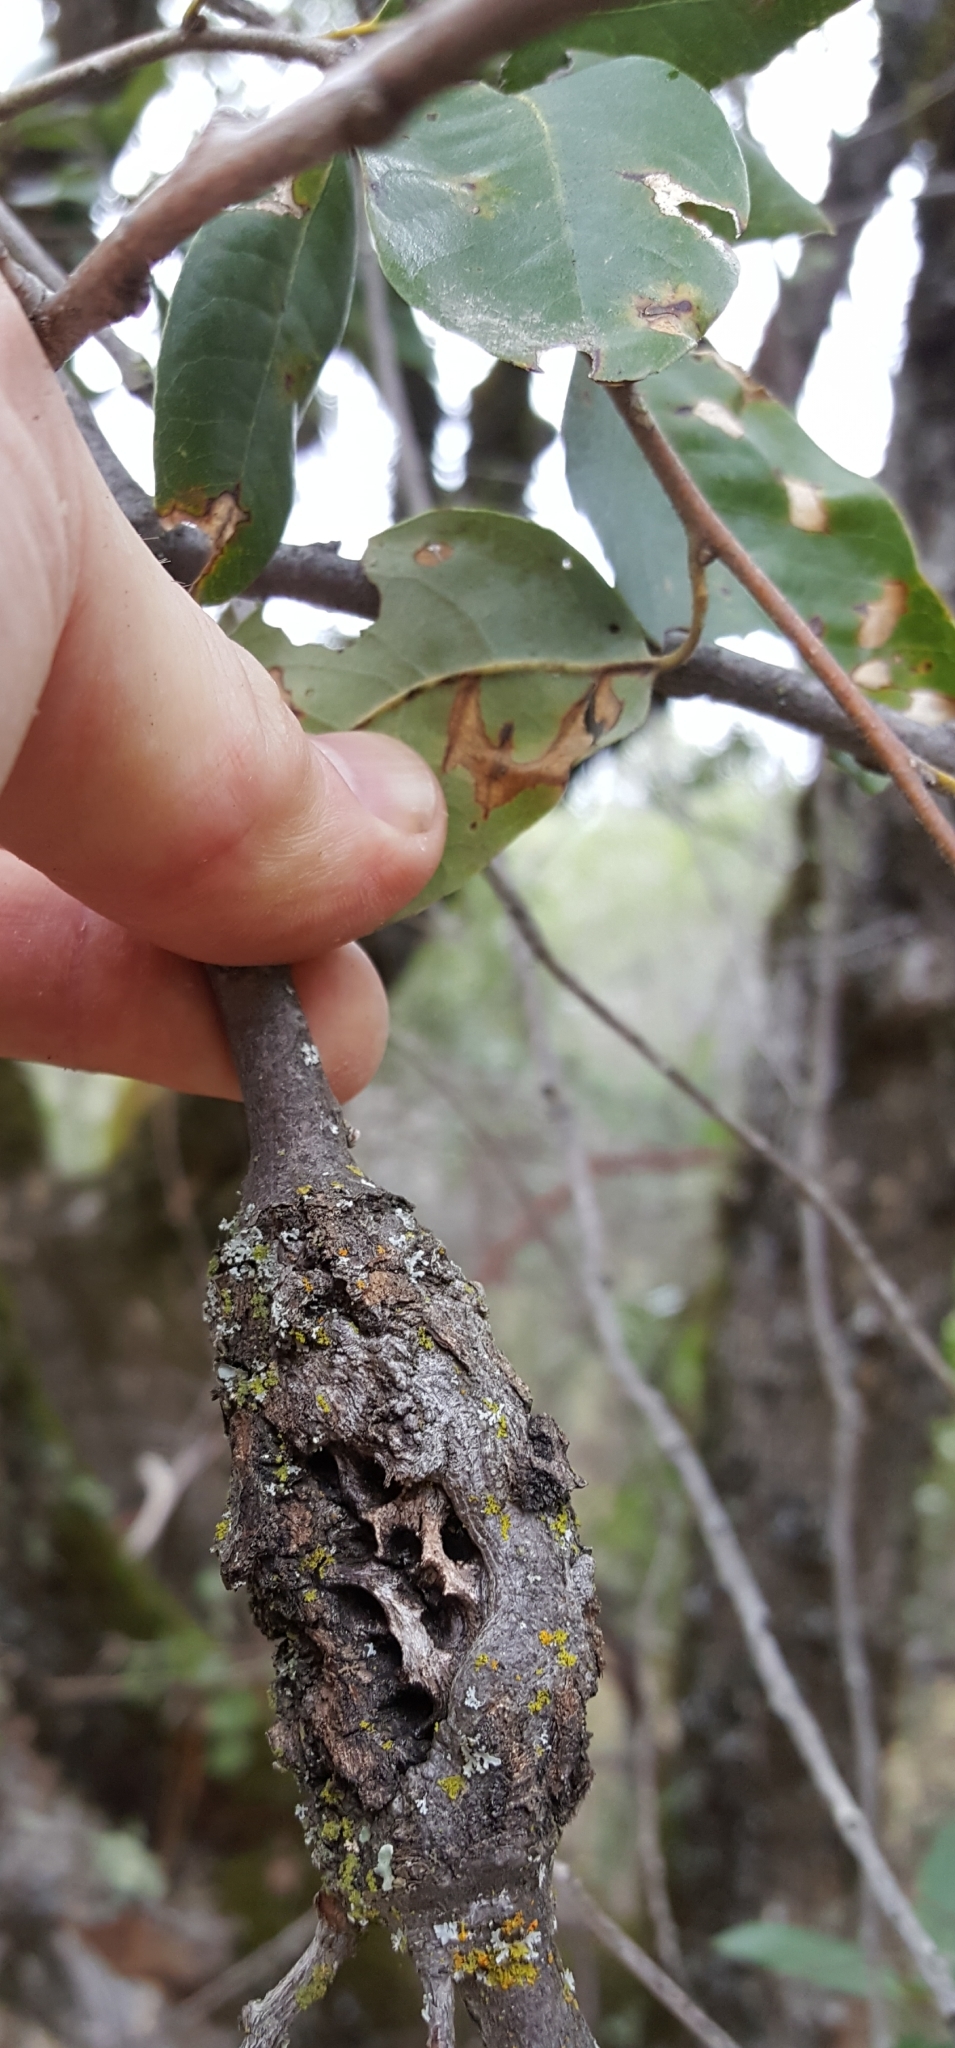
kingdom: Animalia
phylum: Arthropoda
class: Insecta
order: Hymenoptera
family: Cynipidae
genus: Dryocosmus
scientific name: Dryocosmus
